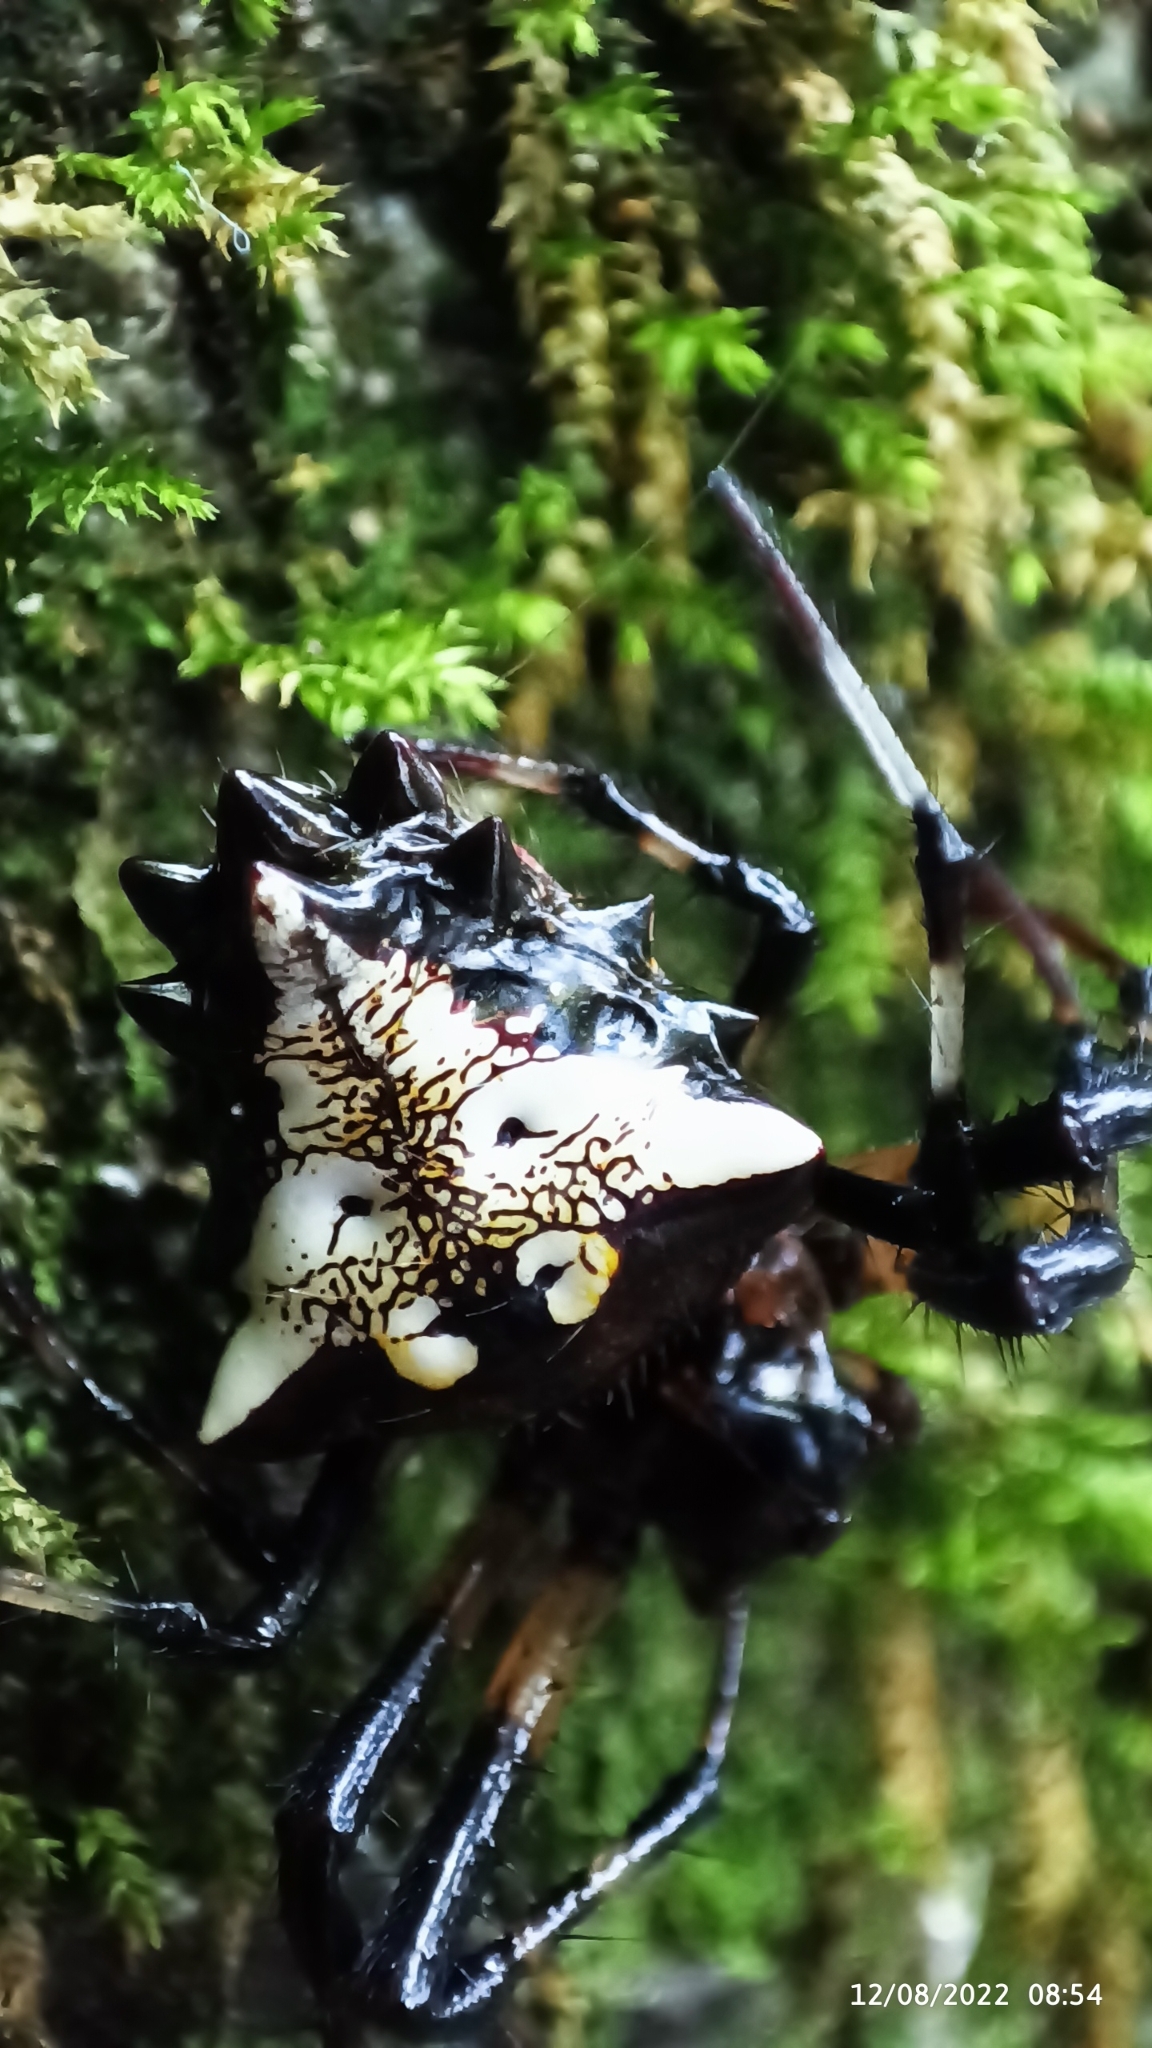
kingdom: Animalia
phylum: Arthropoda
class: Arachnida
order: Araneae
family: Araneidae
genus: Verrucosa
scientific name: Verrucosa arenata
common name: Orb weavers
